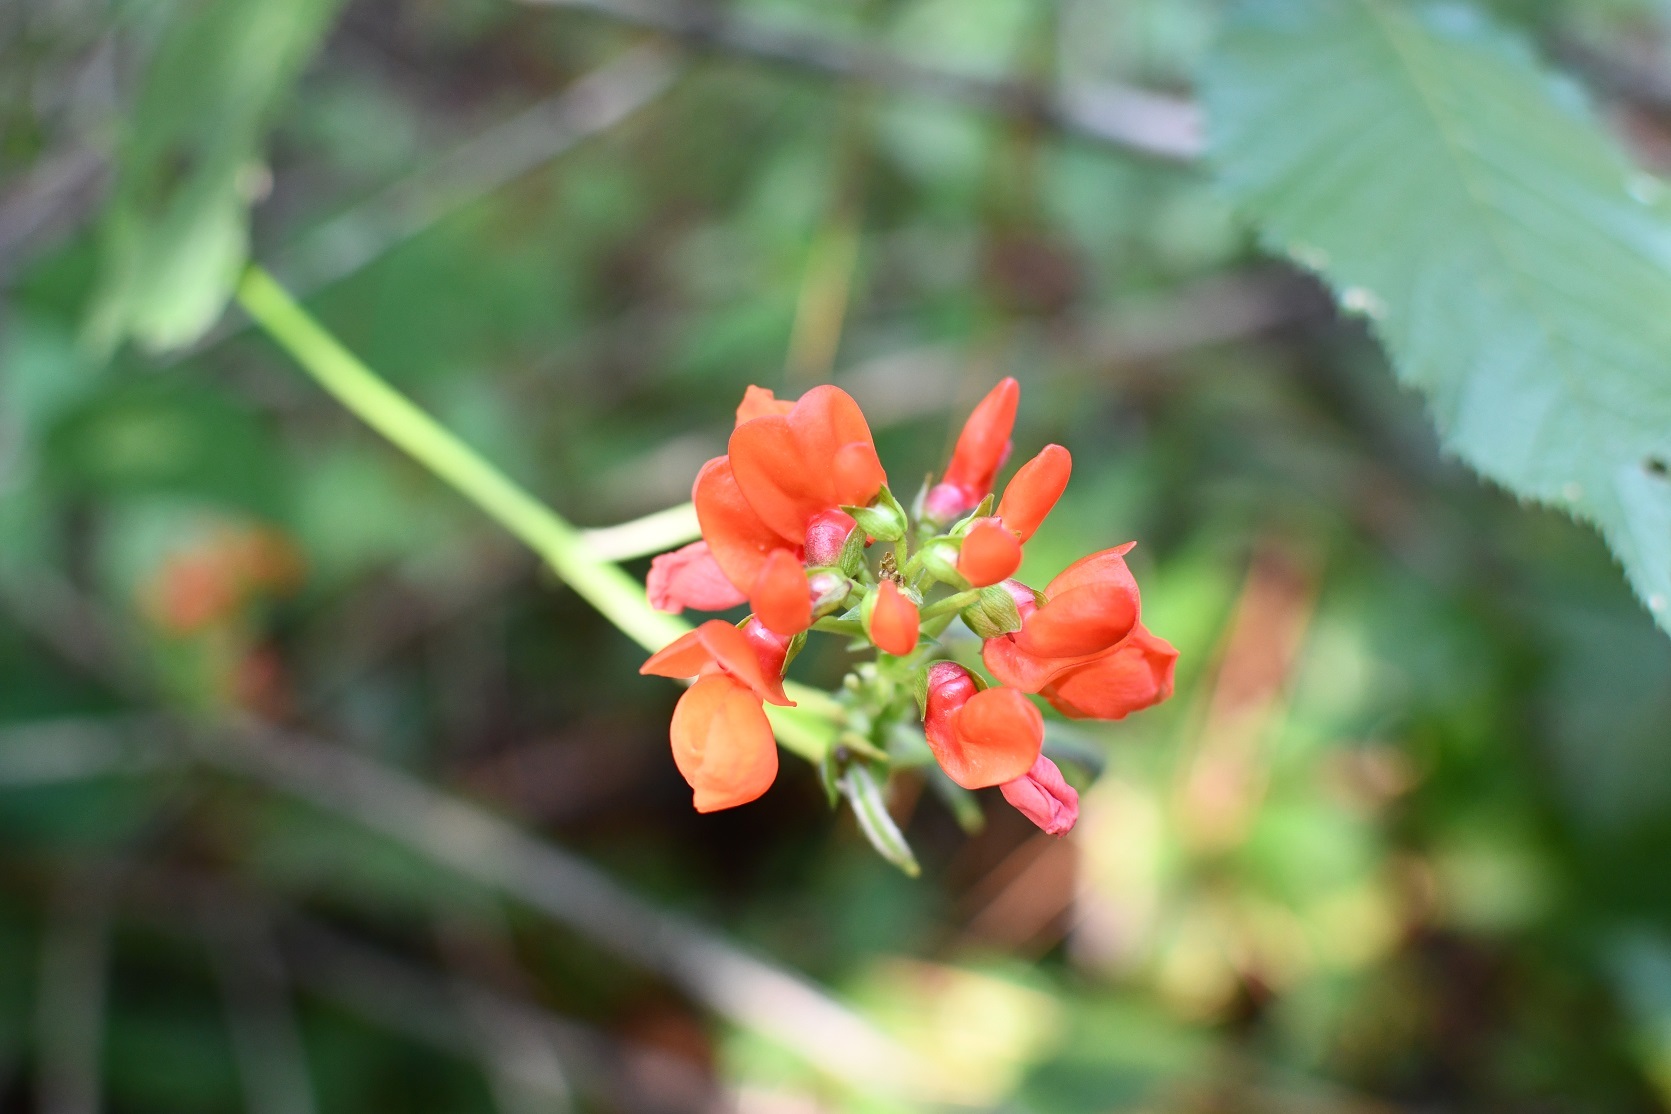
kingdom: Plantae
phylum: Tracheophyta
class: Magnoliopsida
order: Fabales
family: Fabaceae
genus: Phaseolus
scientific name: Phaseolus coccineus
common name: Runner bean
